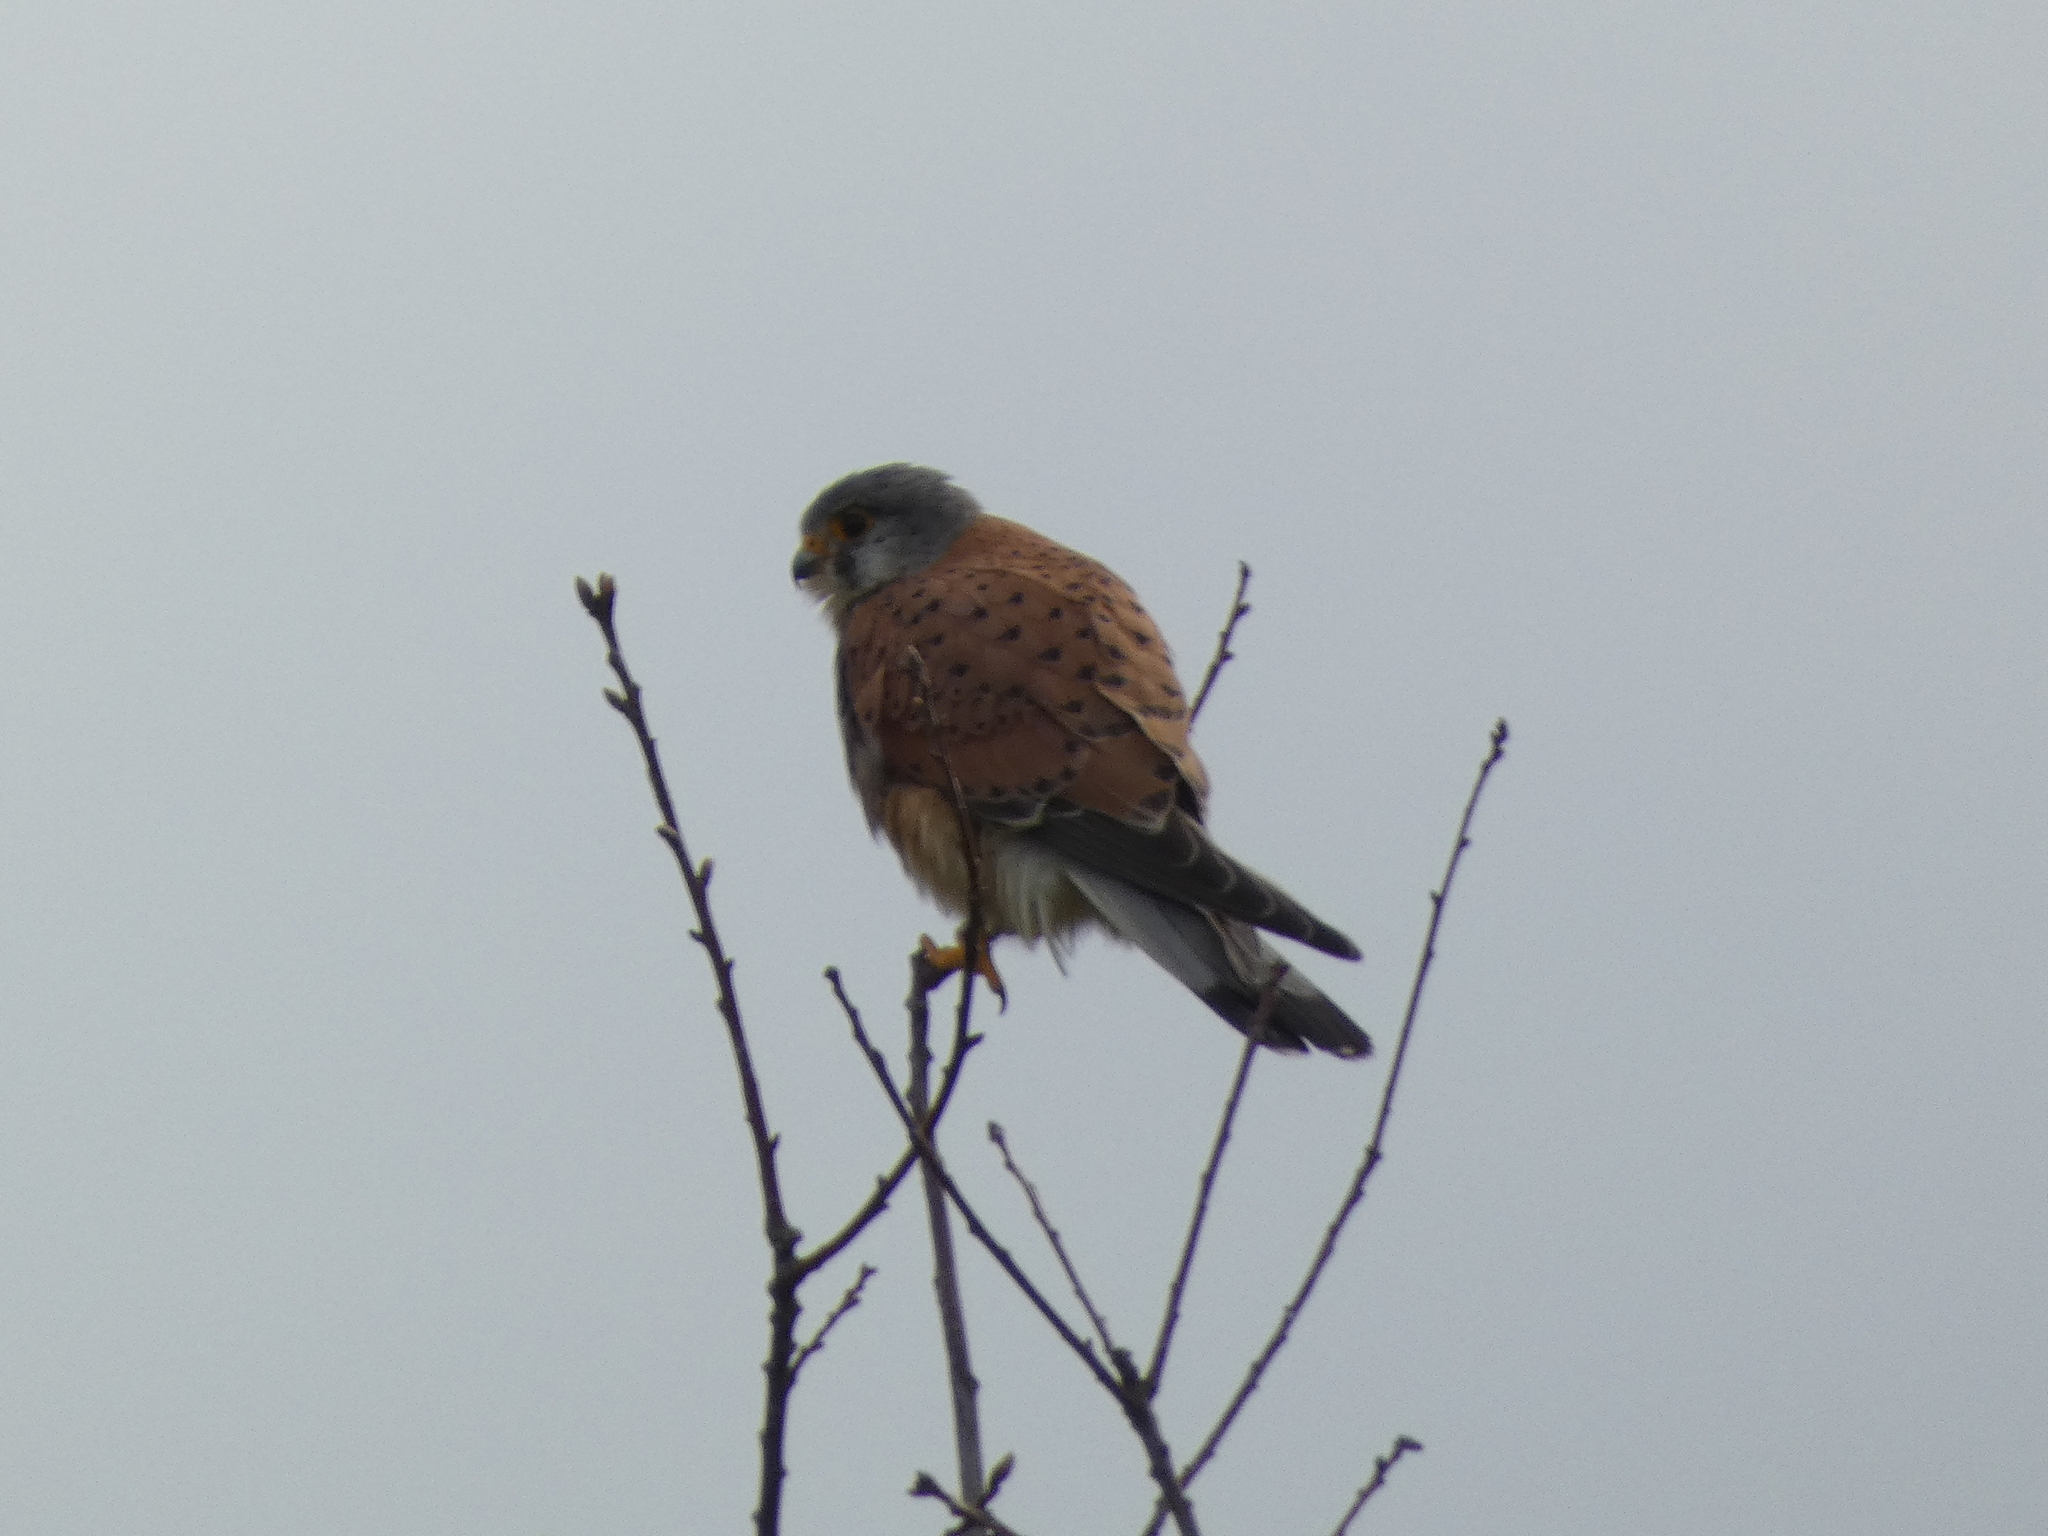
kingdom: Animalia
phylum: Chordata
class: Aves
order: Falconiformes
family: Falconidae
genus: Falco
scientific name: Falco tinnunculus
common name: Common kestrel
